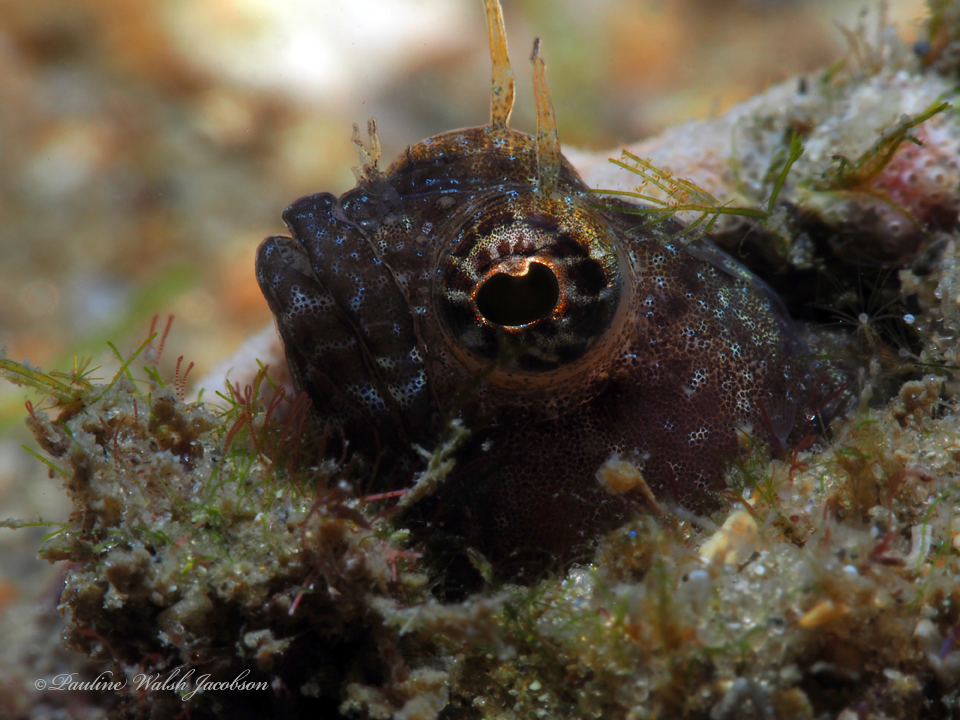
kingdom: Animalia
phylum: Chordata
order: Perciformes
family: Chaenopsidae
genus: Emblemaria
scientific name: Emblemaria pandionis
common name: Sailfin blenny
